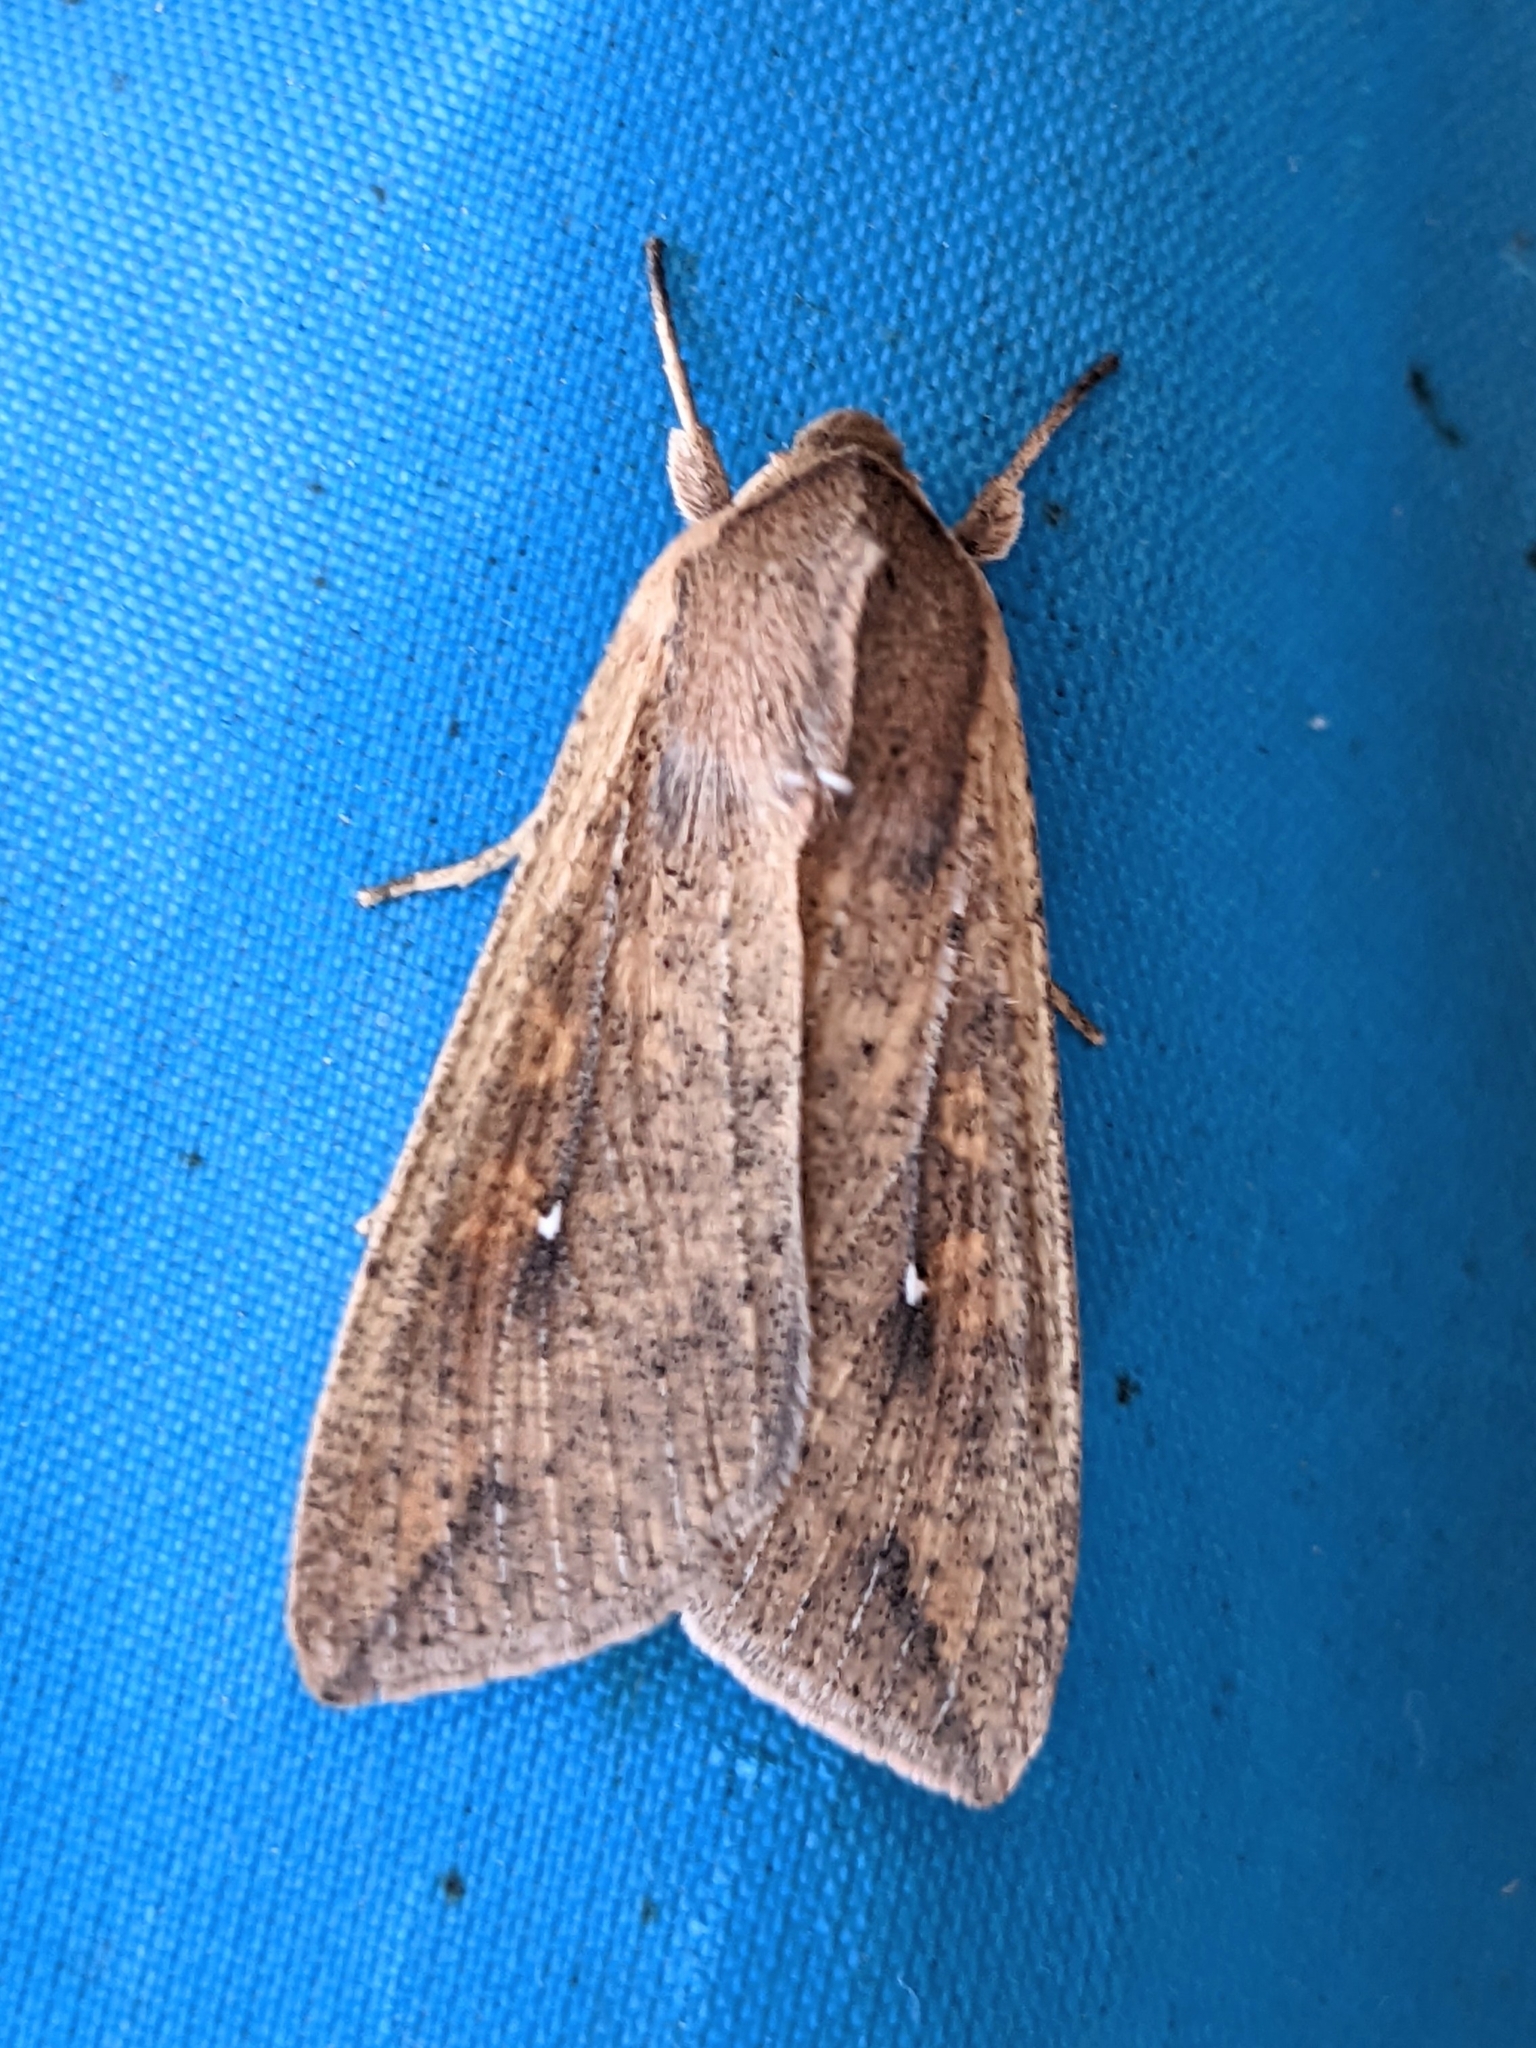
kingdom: Animalia
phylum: Arthropoda
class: Insecta
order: Lepidoptera
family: Noctuidae
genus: Mythimna
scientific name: Mythimna unipuncta
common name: White-speck
